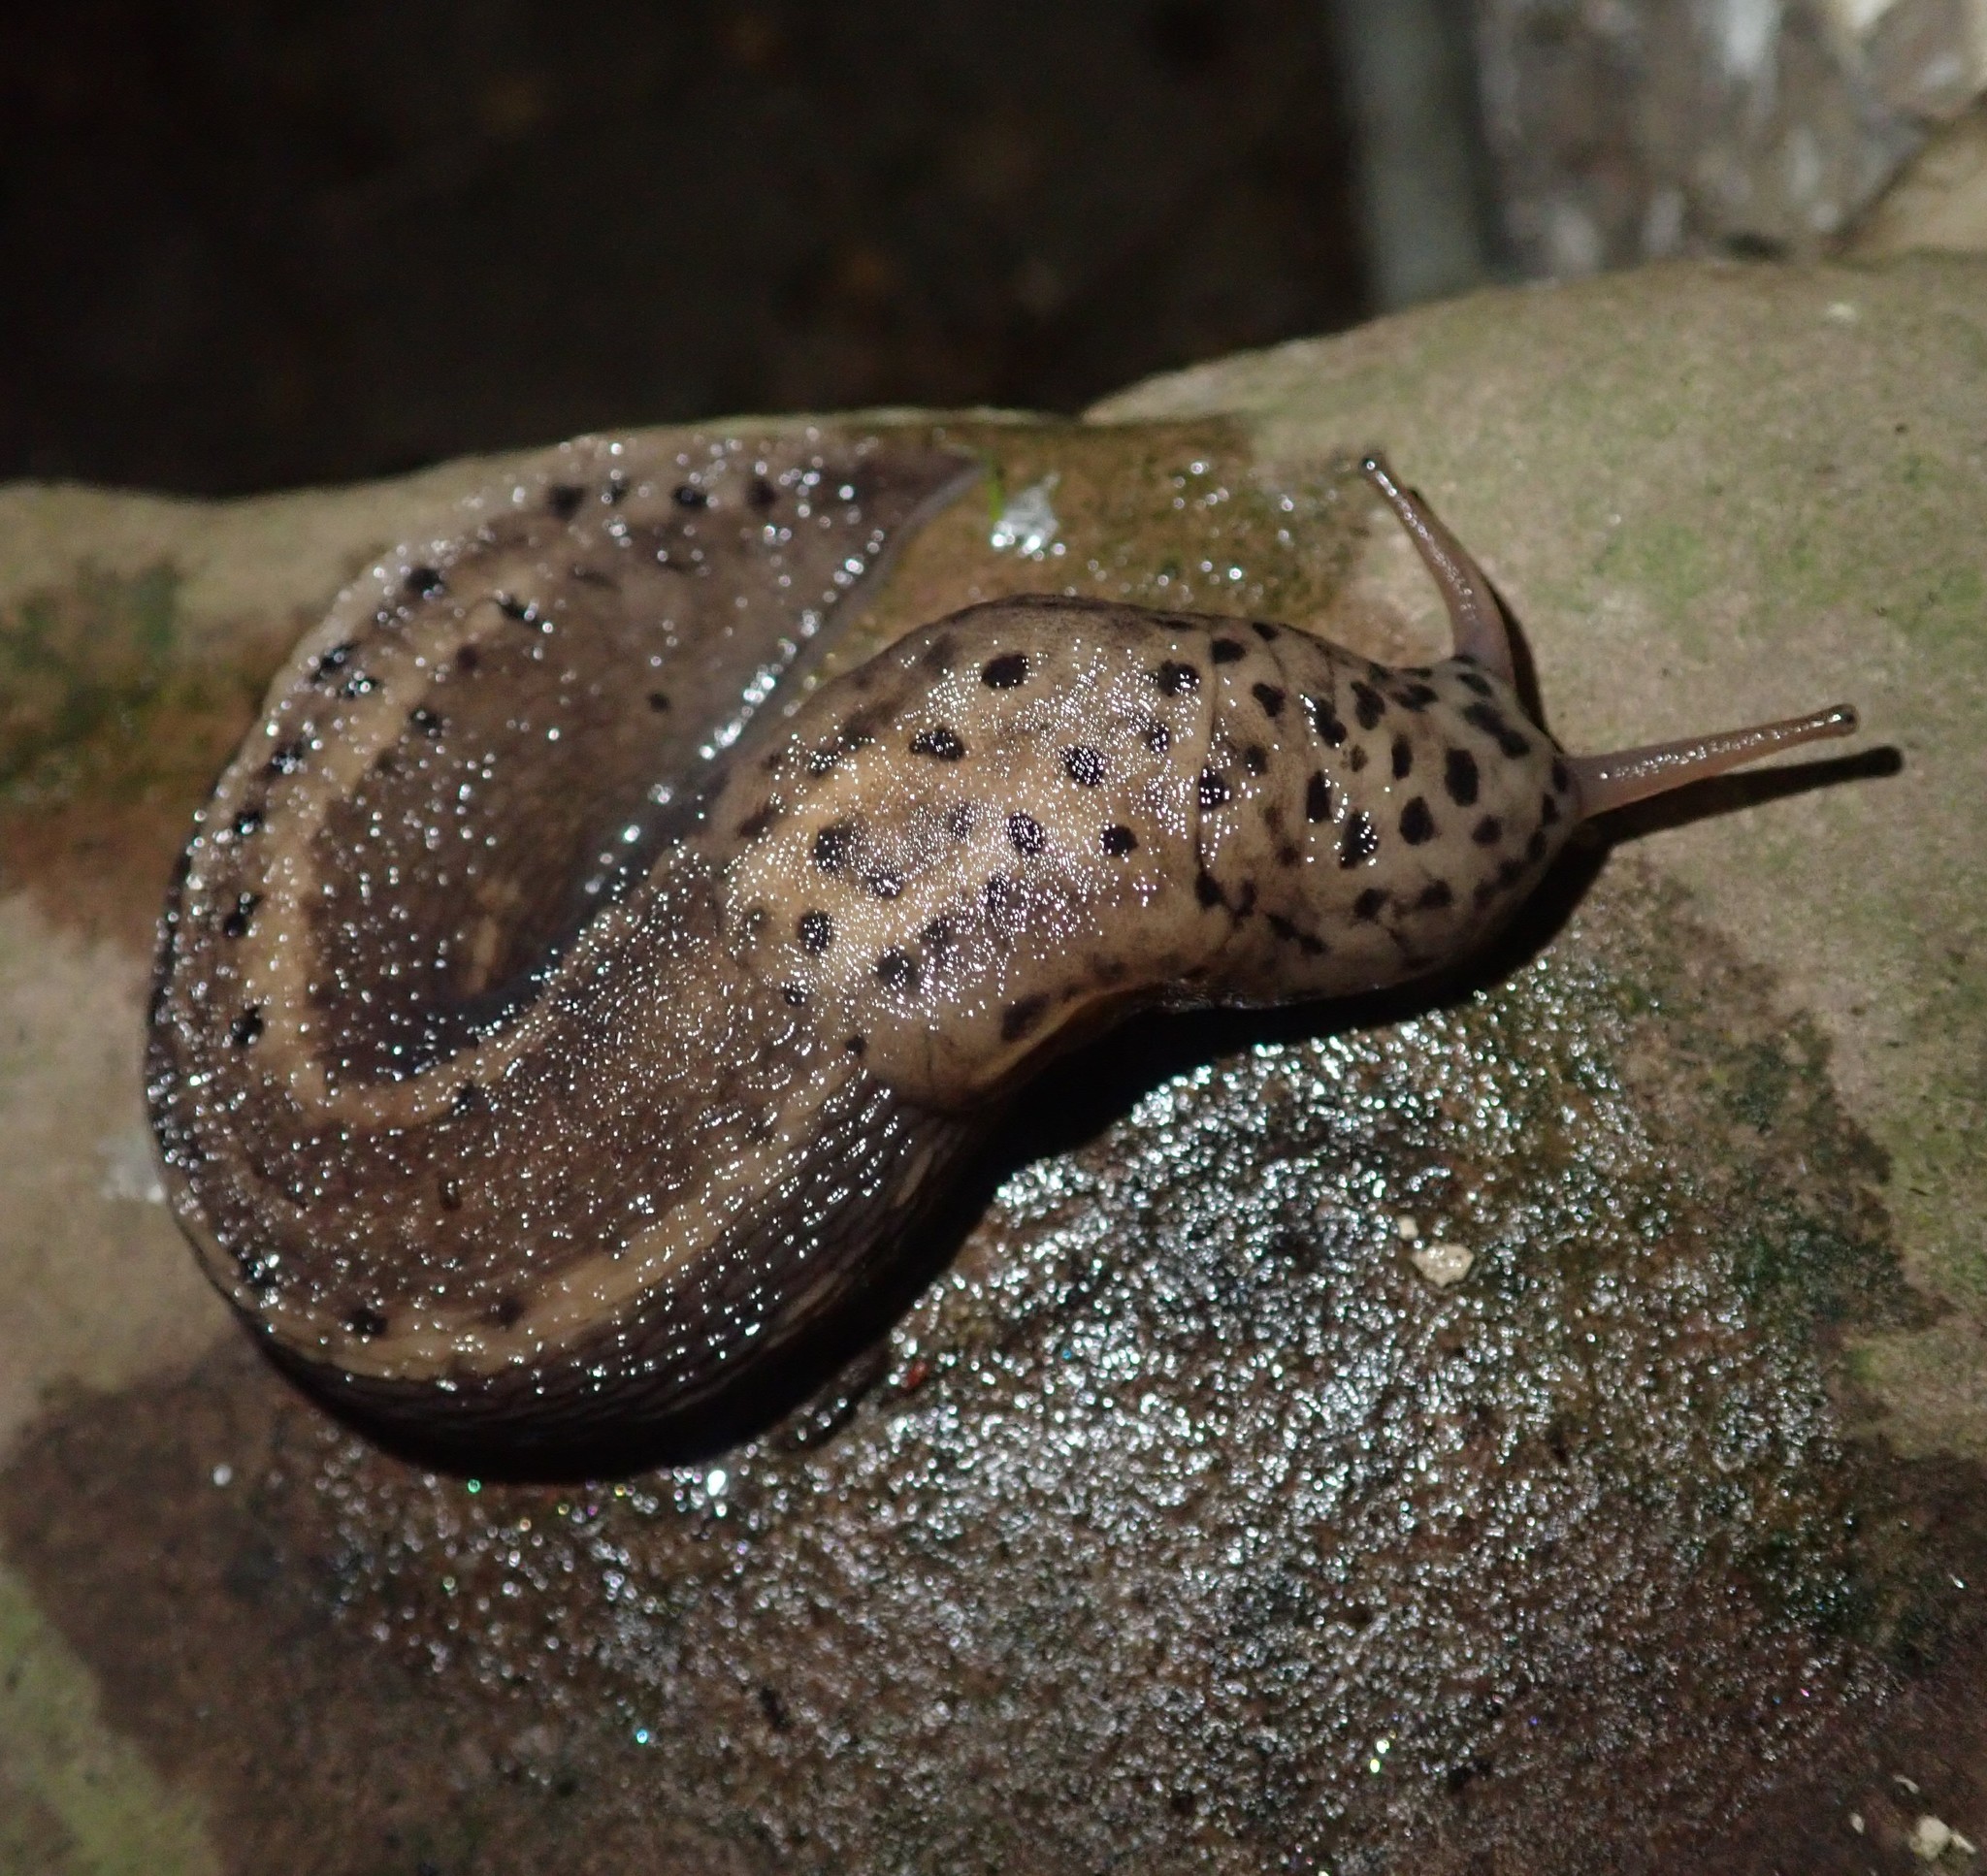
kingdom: Animalia
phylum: Mollusca
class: Gastropoda
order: Stylommatophora
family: Limacidae
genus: Limax
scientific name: Limax maximus
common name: Great grey slug
